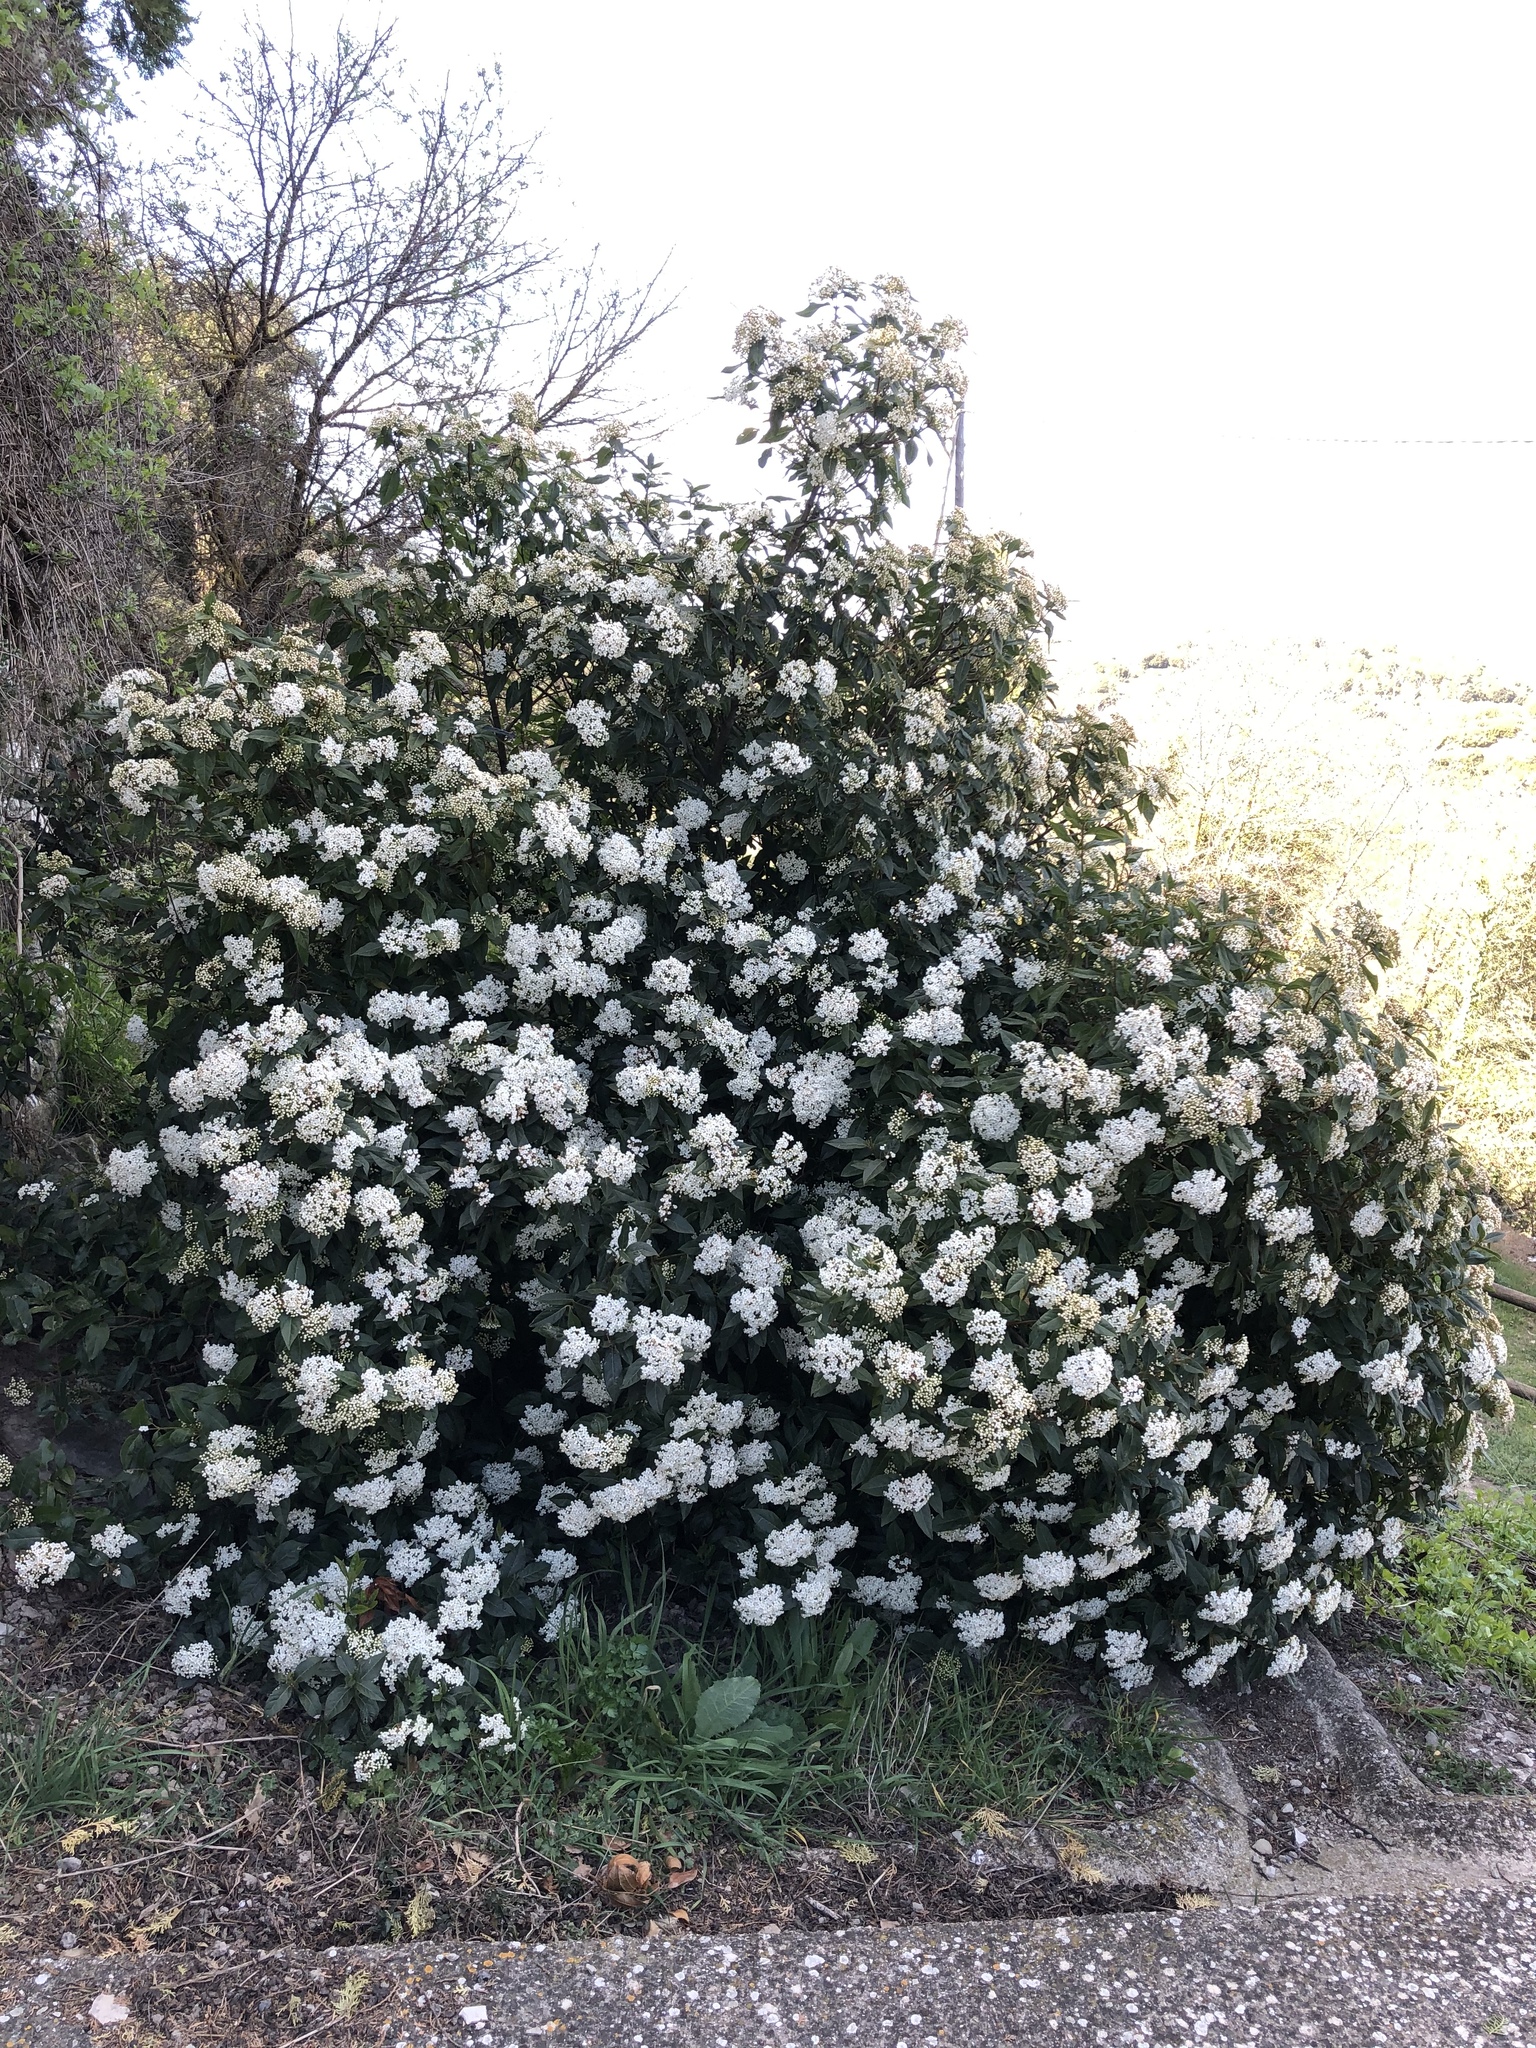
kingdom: Plantae
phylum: Tracheophyta
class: Magnoliopsida
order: Dipsacales
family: Viburnaceae
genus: Viburnum
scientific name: Viburnum tinus
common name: Laurustinus
